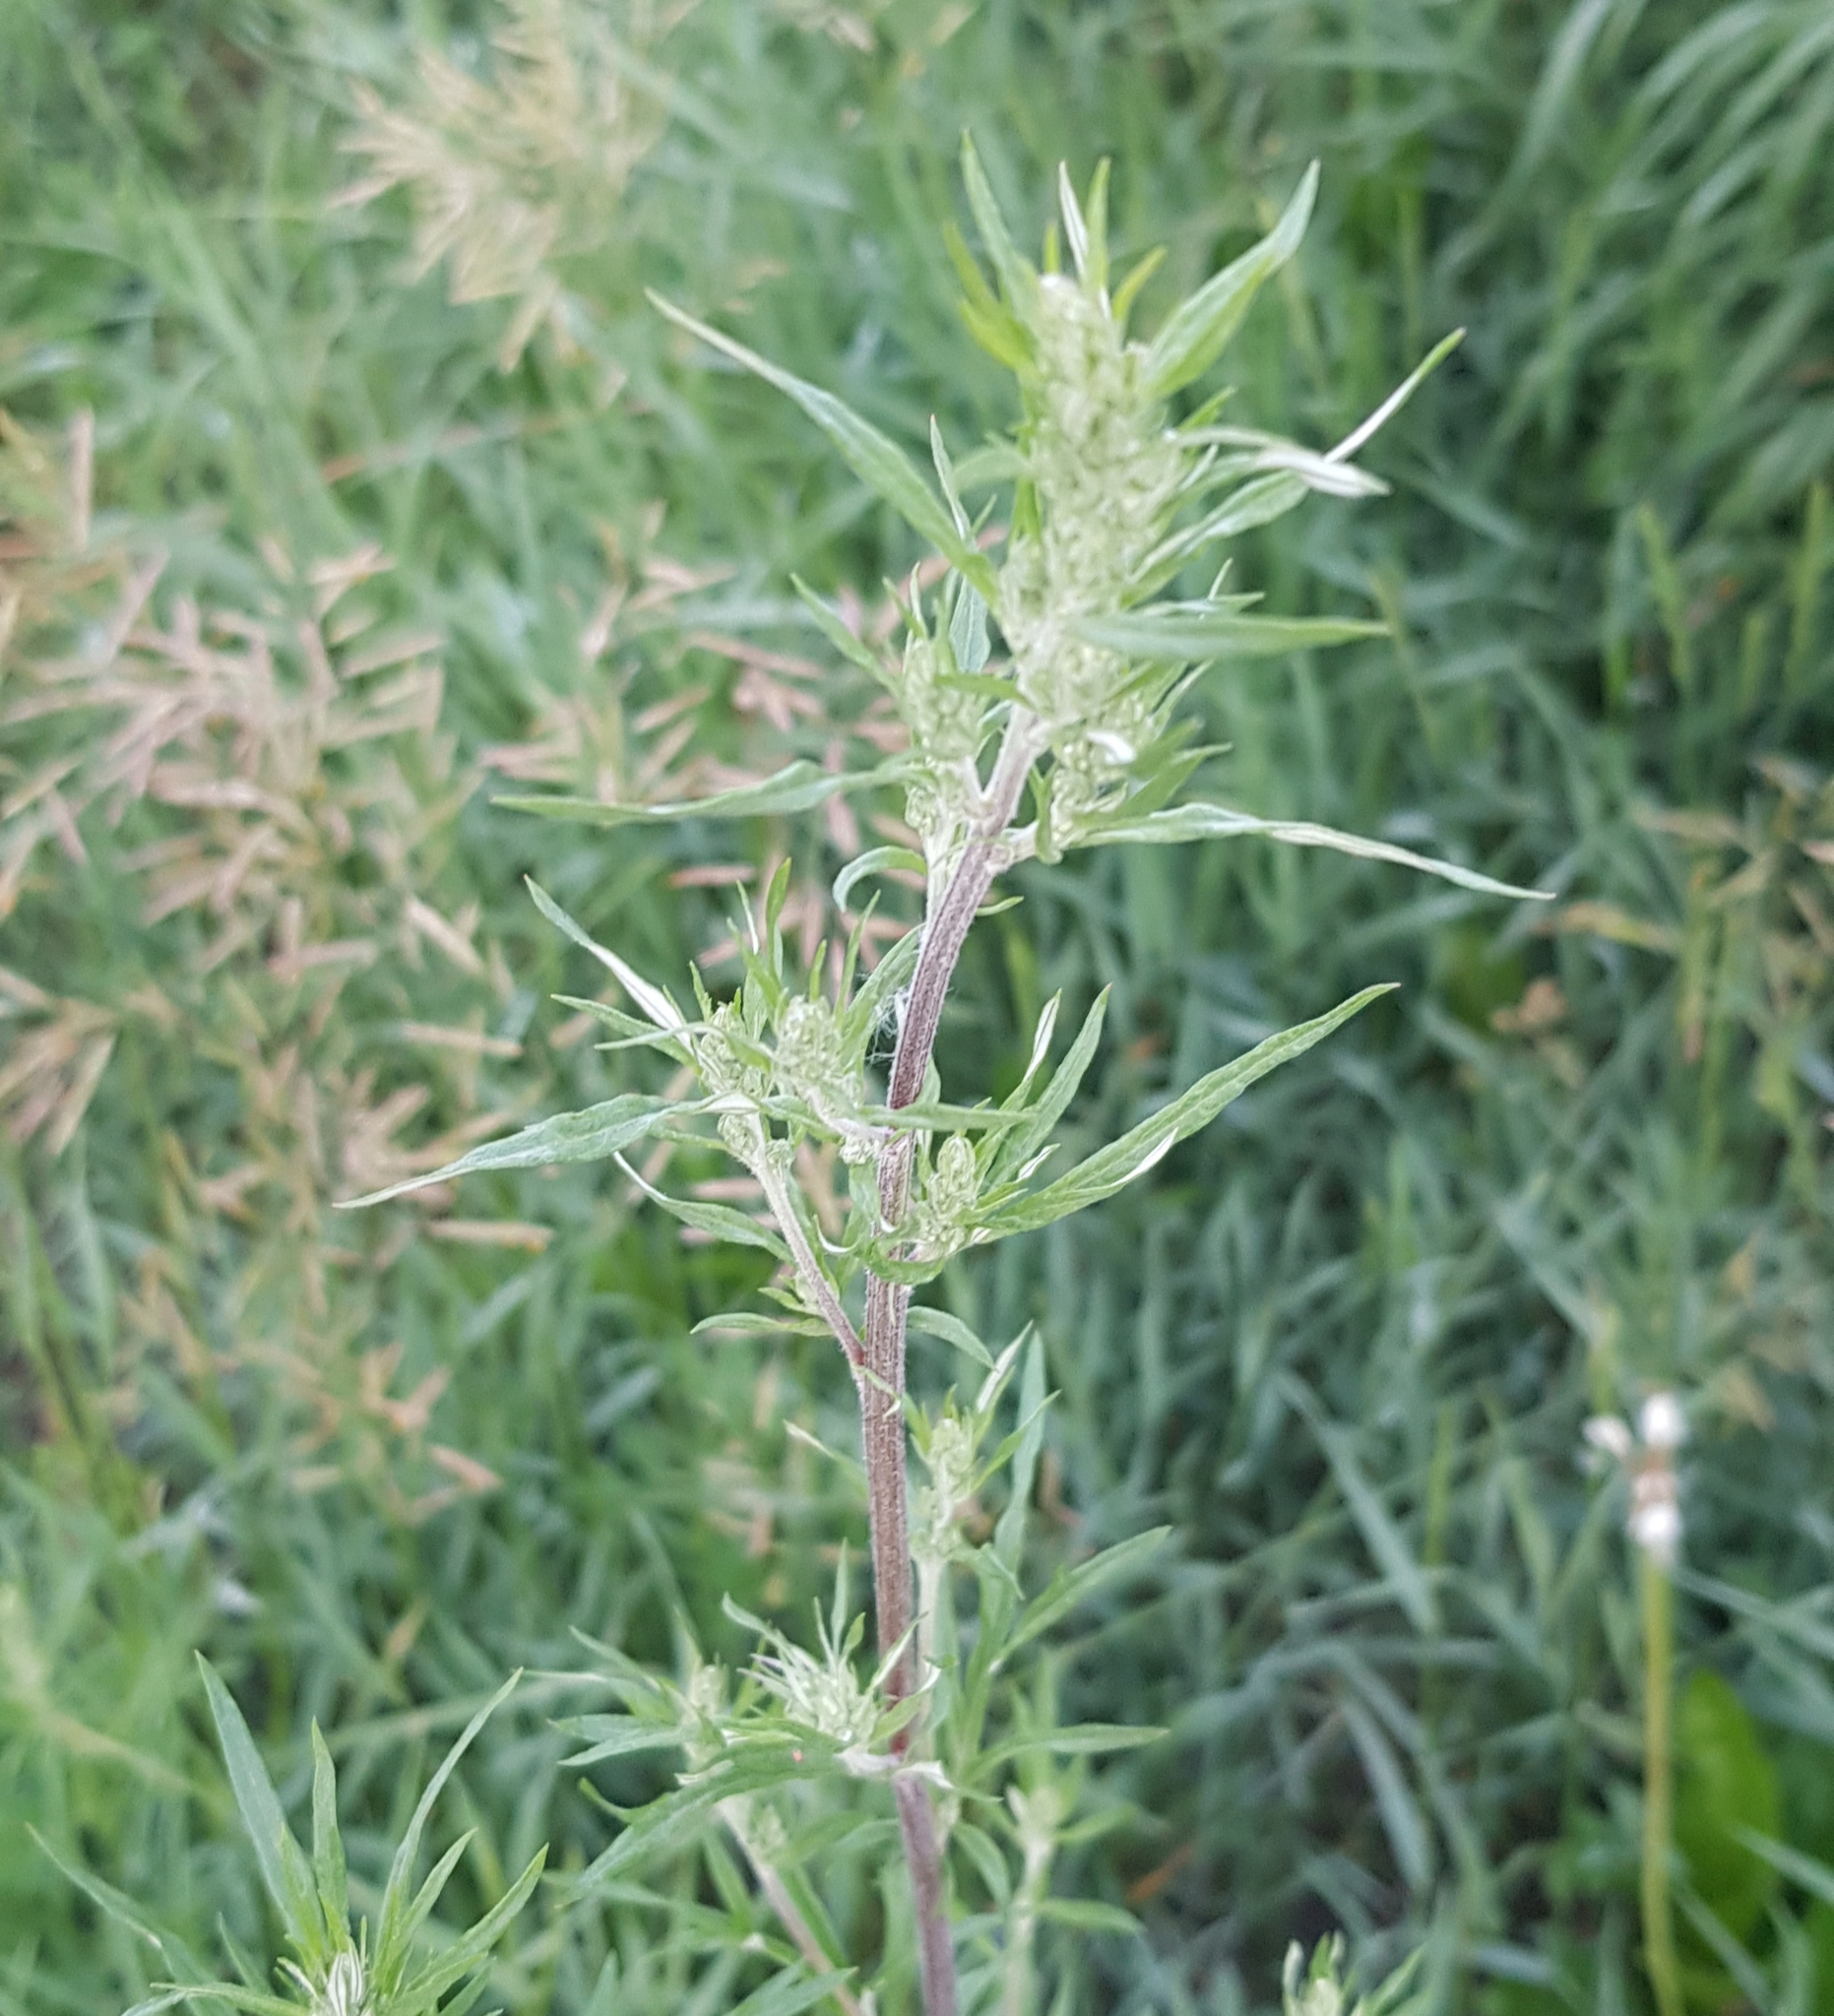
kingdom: Plantae
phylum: Tracheophyta
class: Magnoliopsida
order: Asterales
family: Asteraceae
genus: Artemisia
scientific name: Artemisia mongolica
